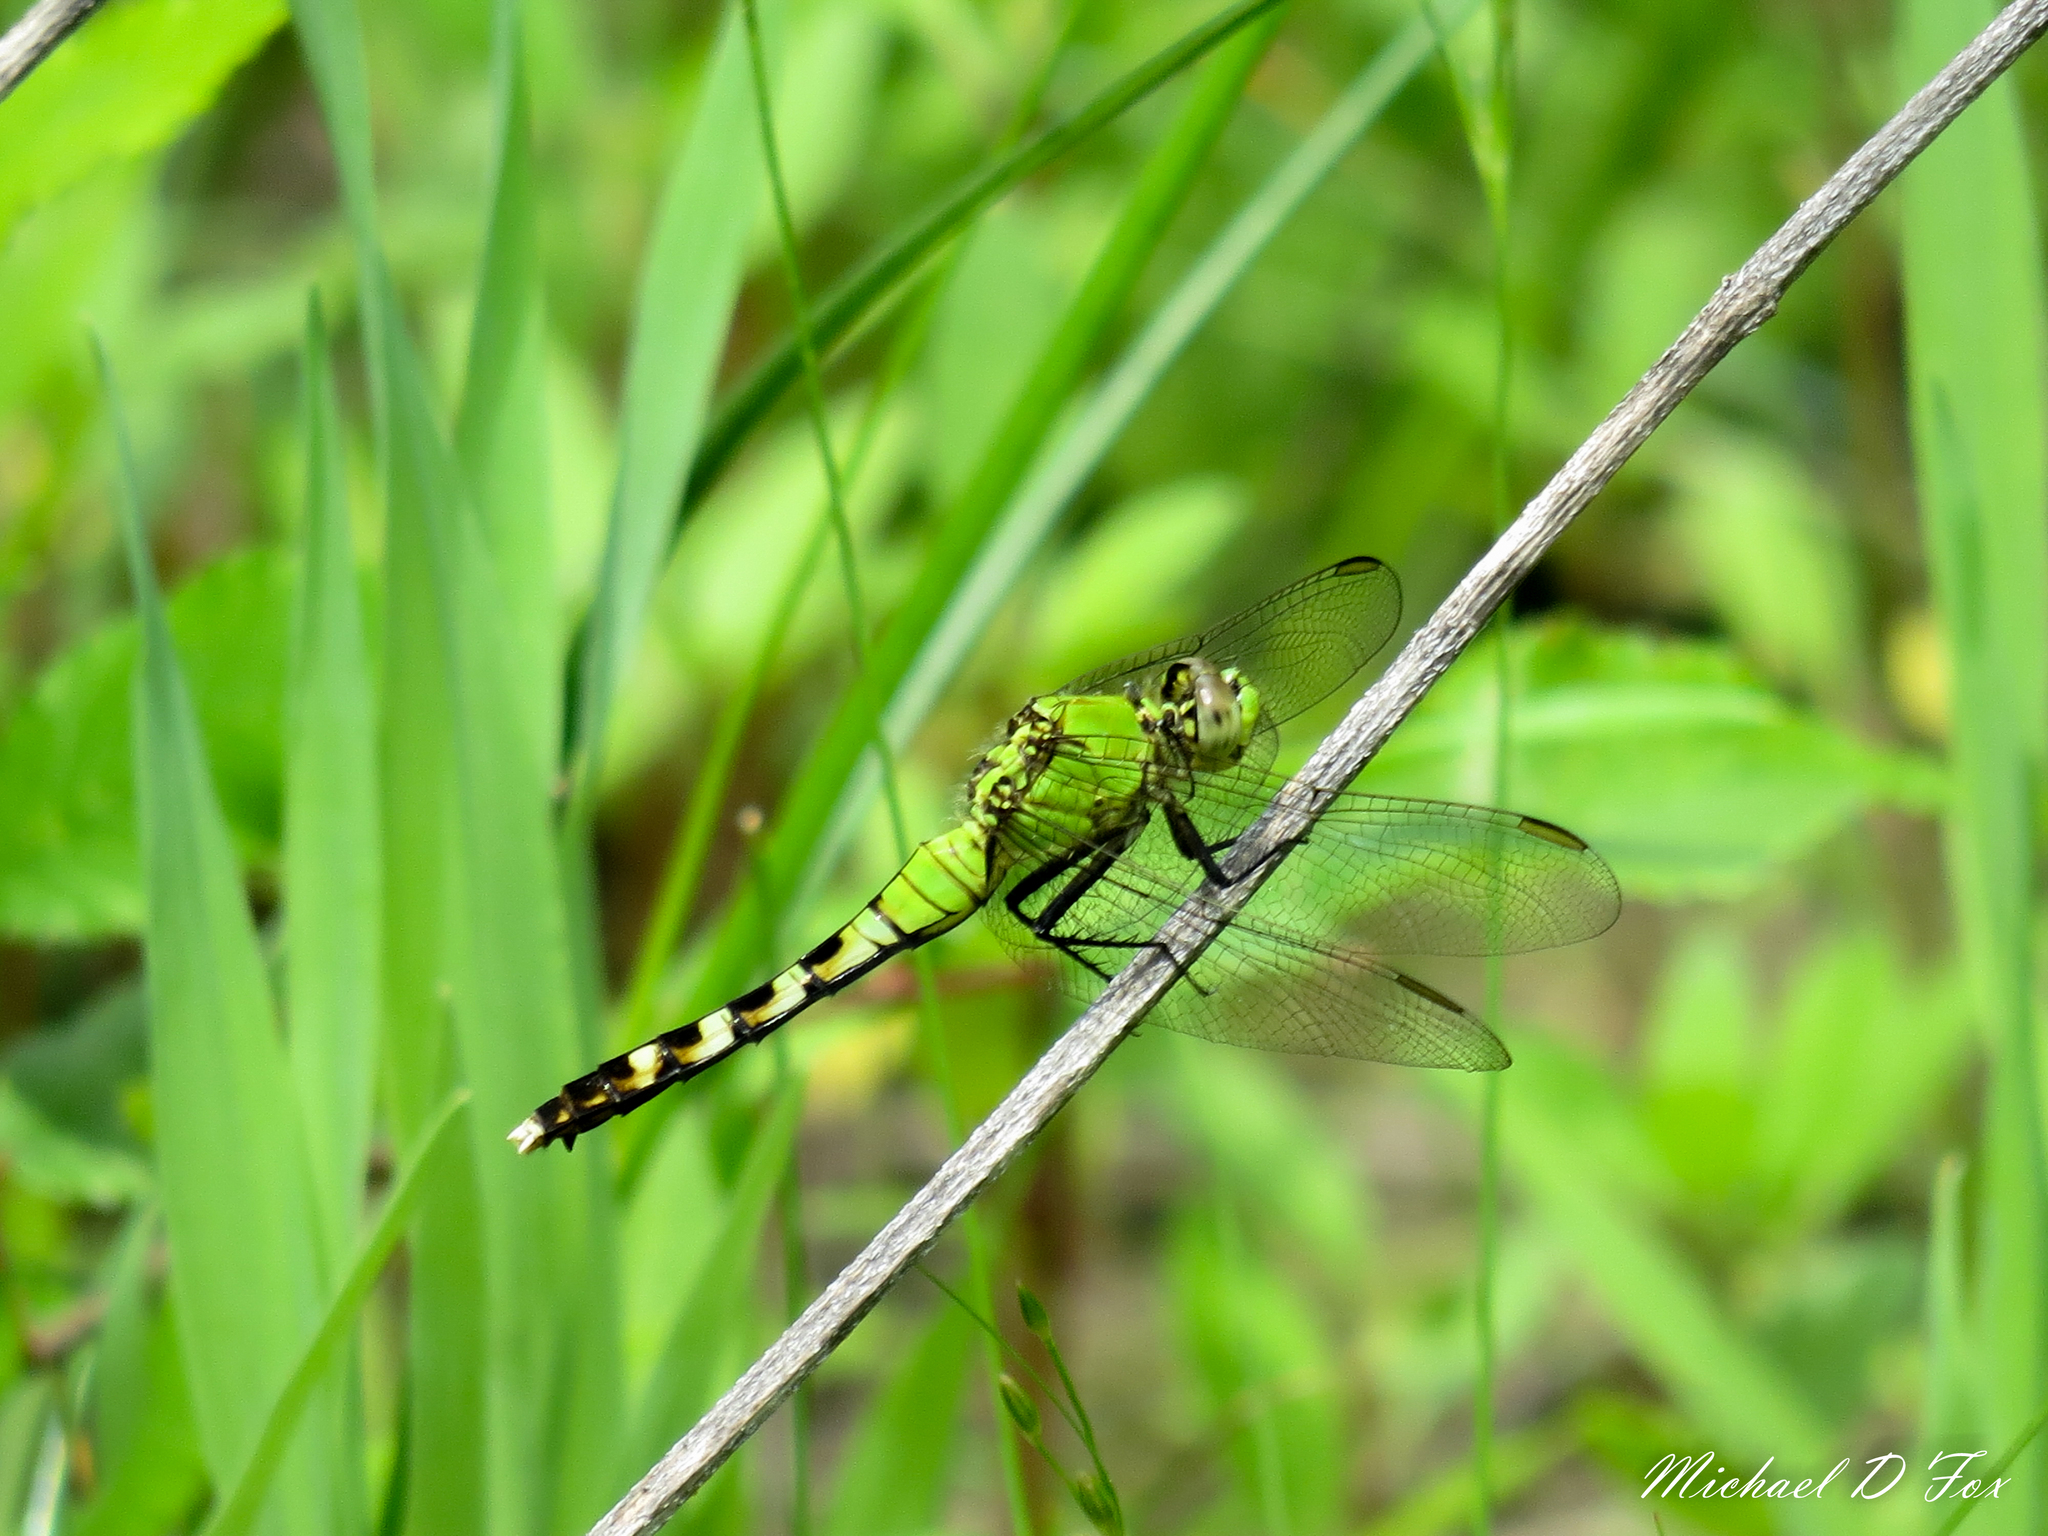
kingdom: Animalia
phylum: Arthropoda
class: Insecta
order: Odonata
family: Libellulidae
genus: Erythemis
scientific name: Erythemis simplicicollis
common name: Eastern pondhawk
